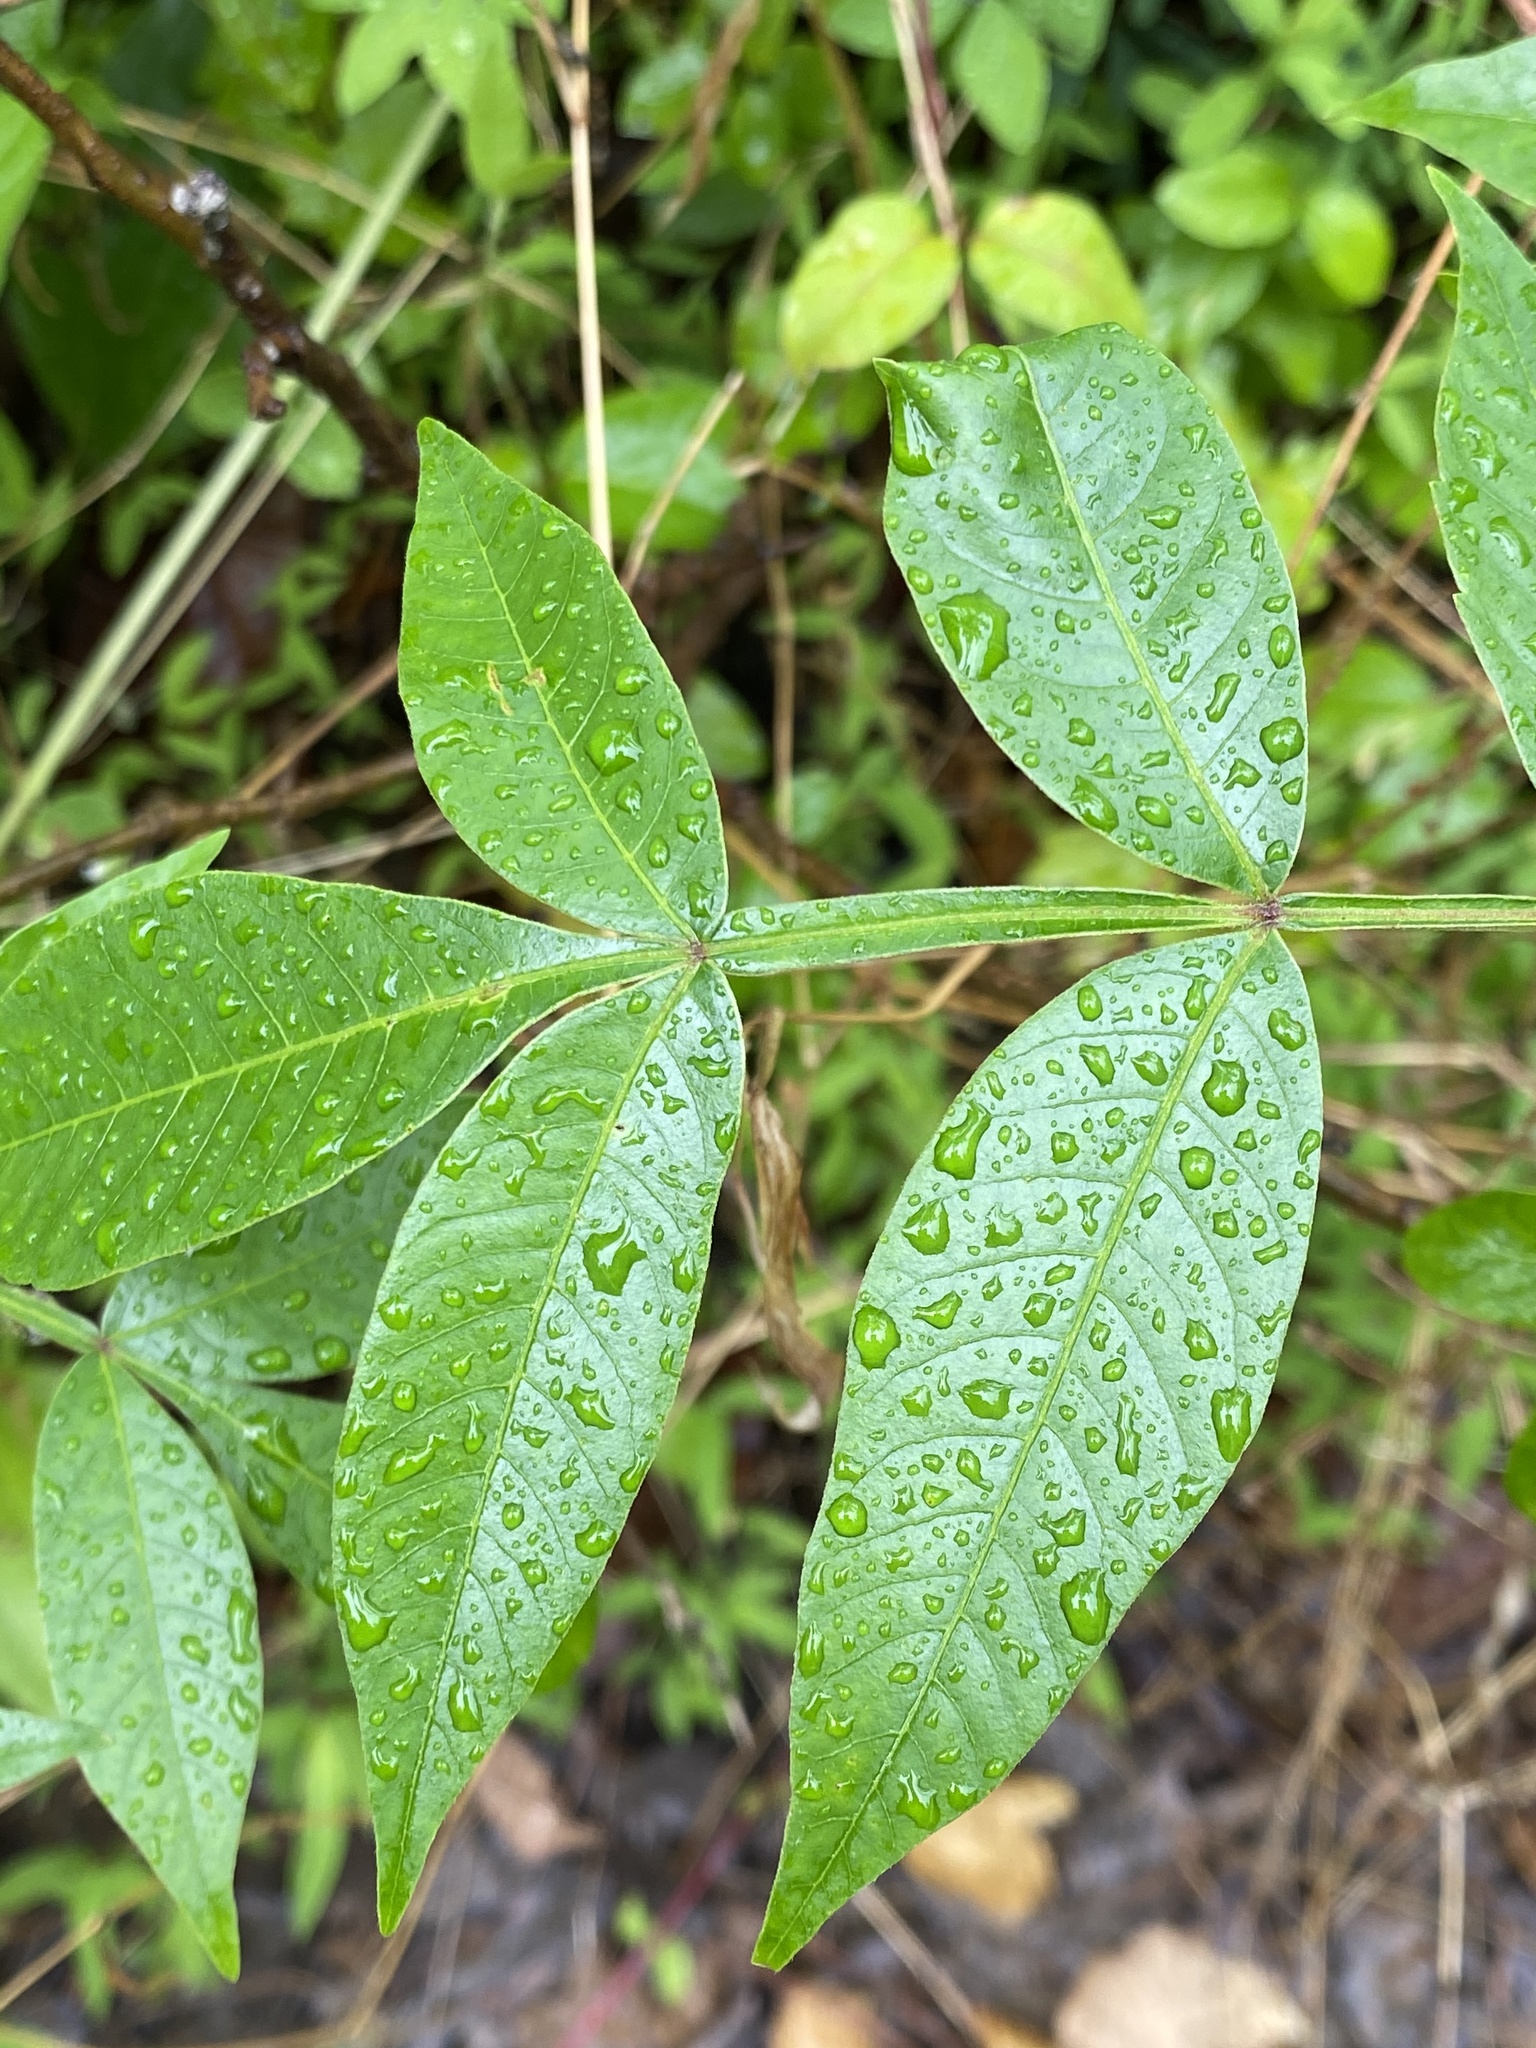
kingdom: Plantae
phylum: Tracheophyta
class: Magnoliopsida
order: Sapindales
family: Anacardiaceae
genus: Rhus
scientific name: Rhus copallina
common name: Shining sumac
